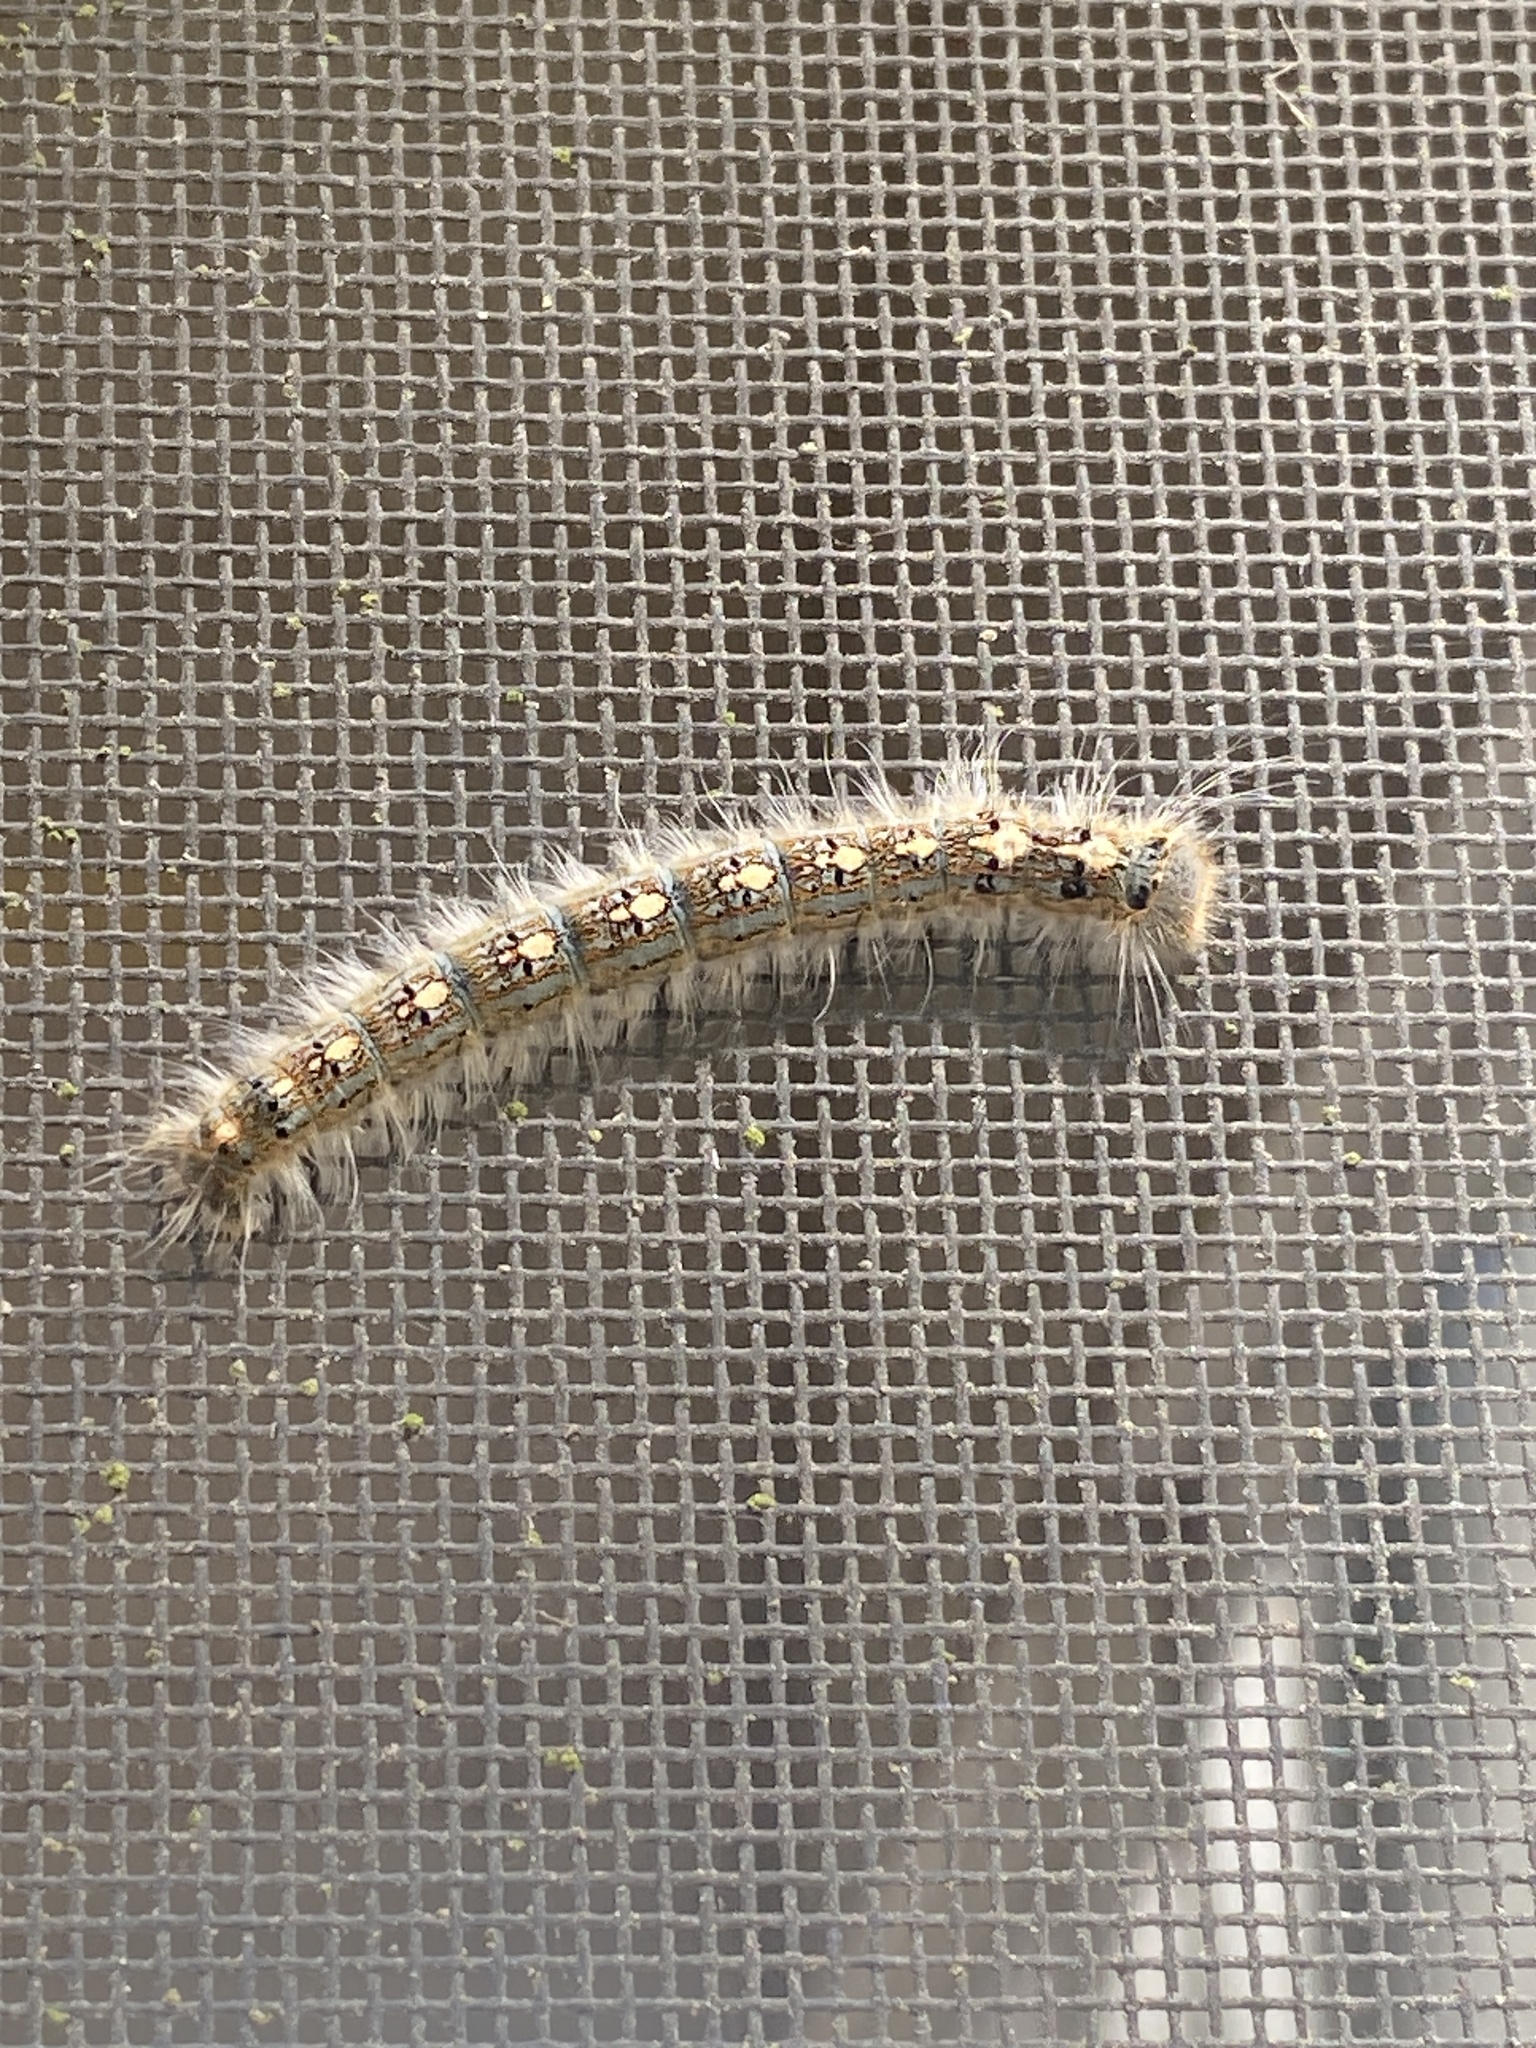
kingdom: Animalia
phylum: Arthropoda
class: Insecta
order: Lepidoptera
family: Lasiocampidae
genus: Malacosoma
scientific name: Malacosoma disstria
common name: Forest tent caterpillar
